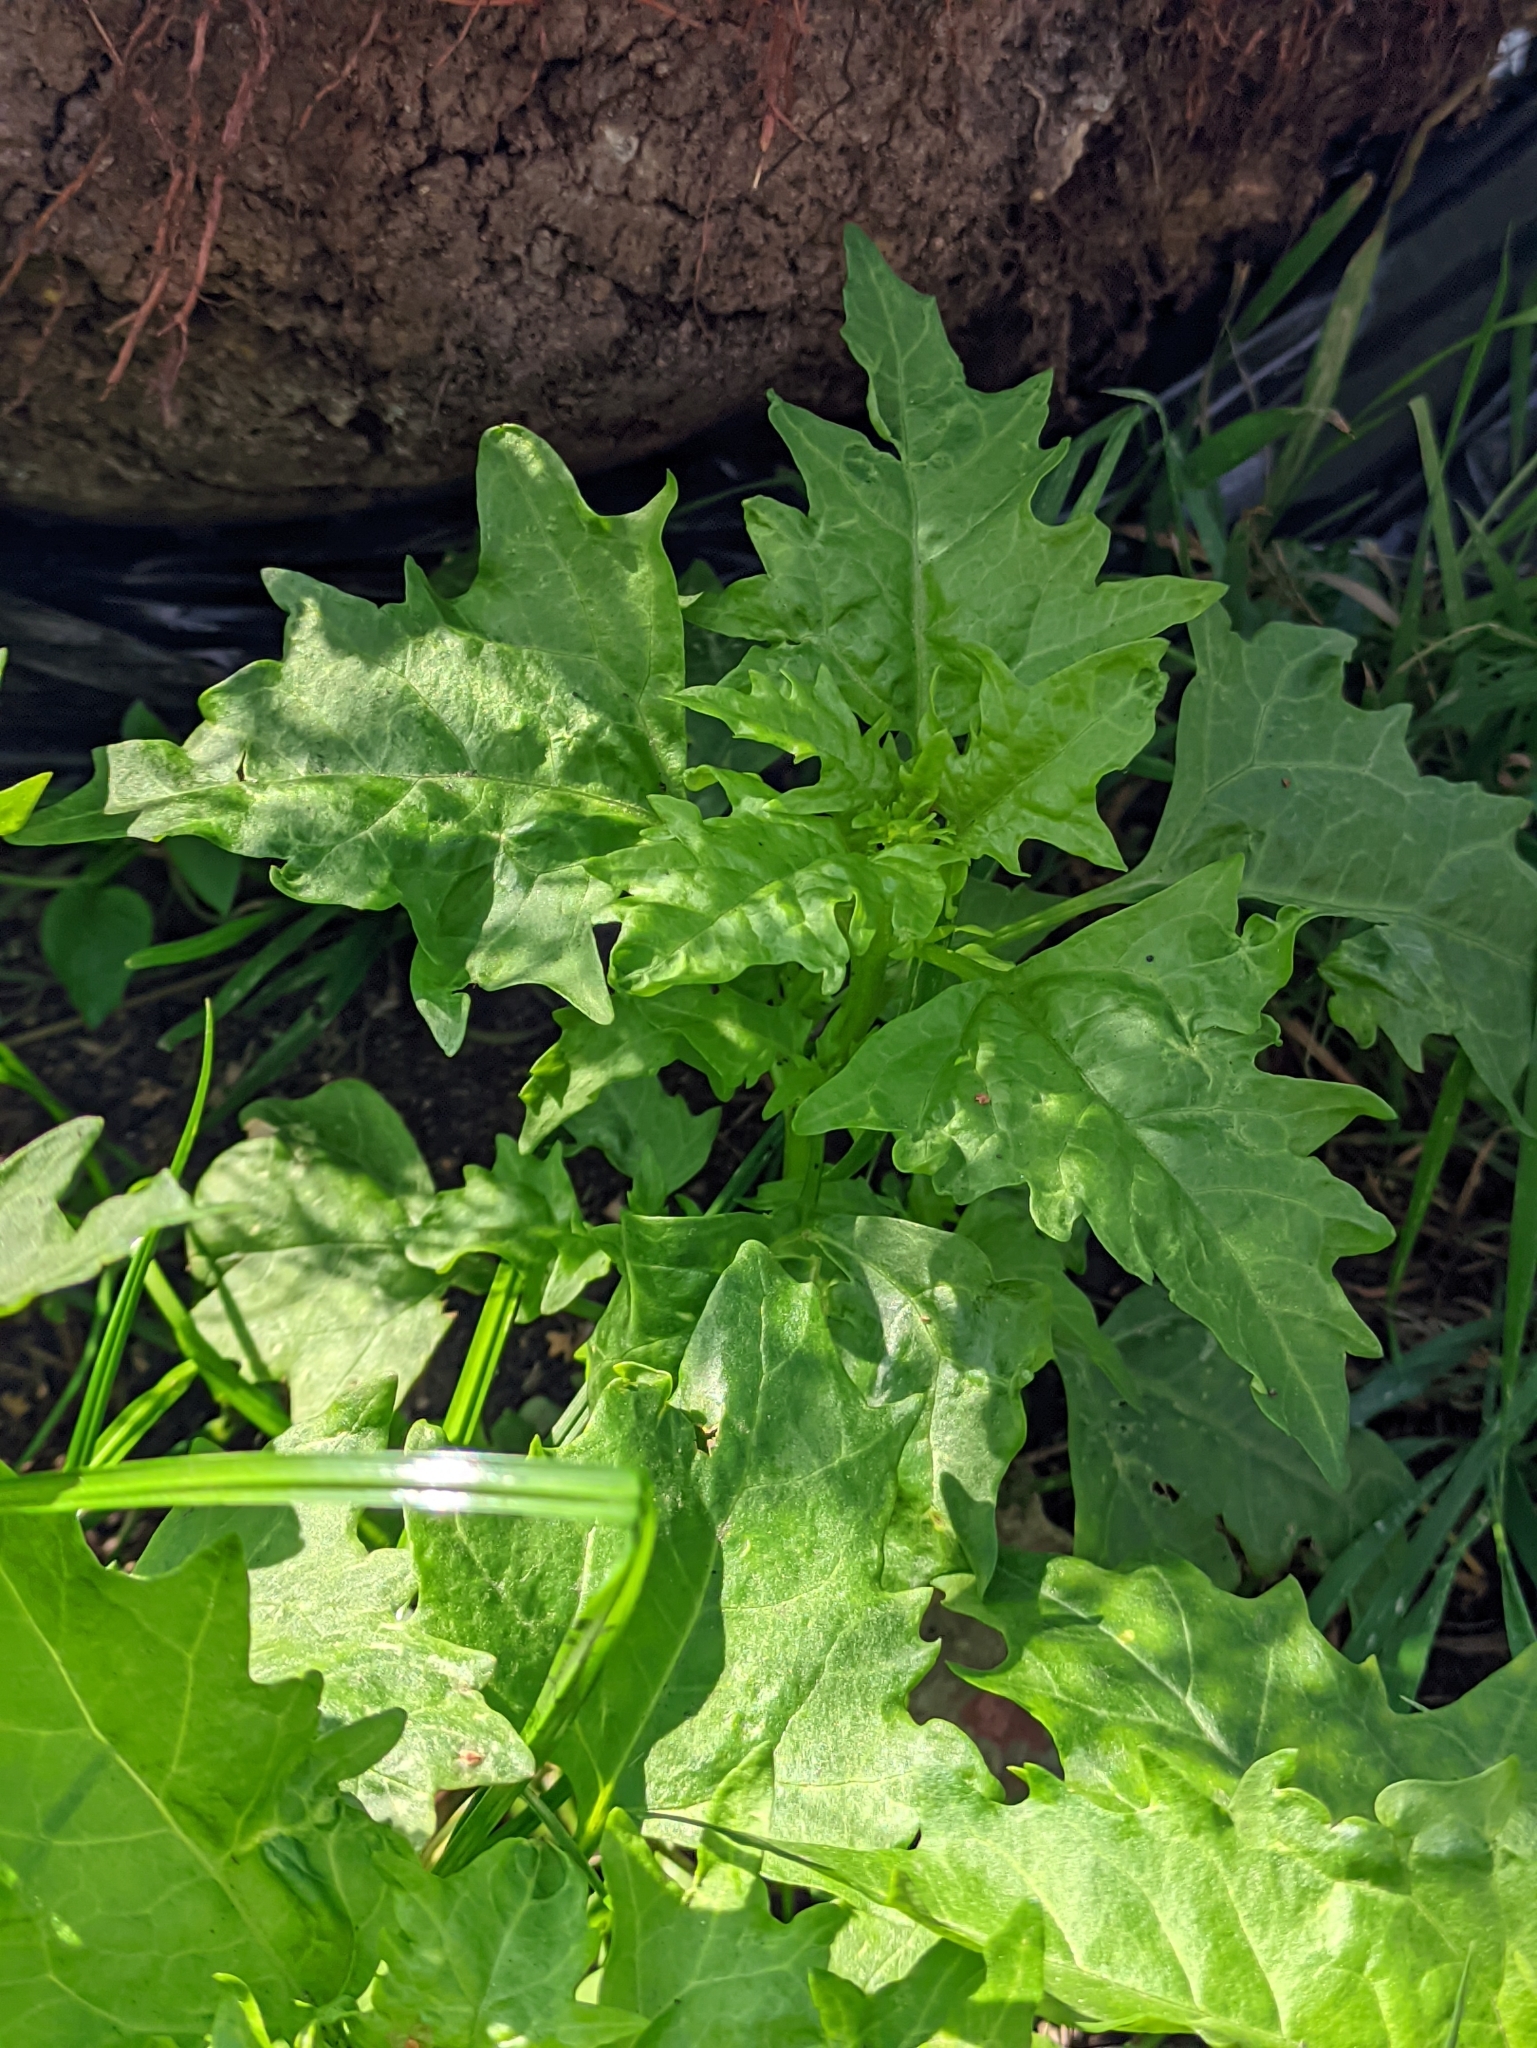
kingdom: Plantae
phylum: Tracheophyta
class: Magnoliopsida
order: Caryophyllales
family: Amaranthaceae
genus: Oxybasis
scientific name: Oxybasis rubra
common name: Red goosefoot
